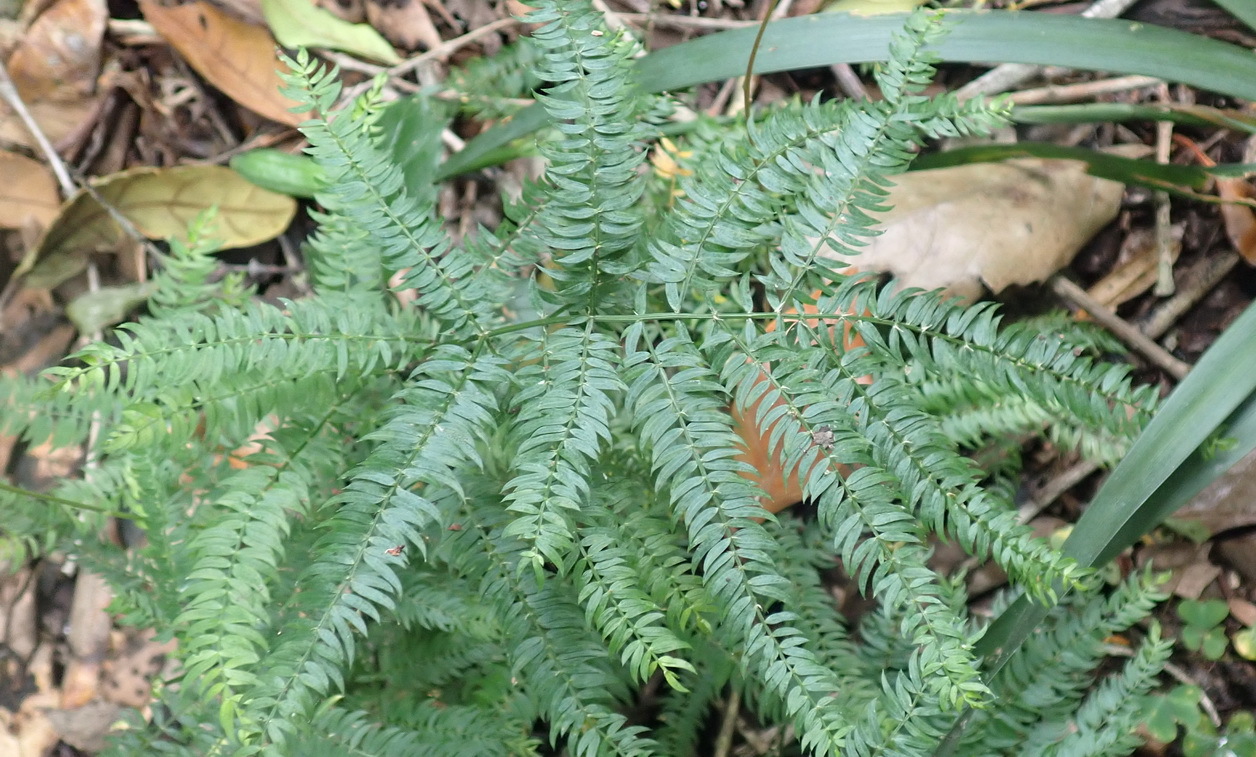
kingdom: Plantae
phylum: Tracheophyta
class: Liliopsida
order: Asparagales
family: Asparagaceae
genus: Asparagus
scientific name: Asparagus scandens
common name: Asparagus-fern
